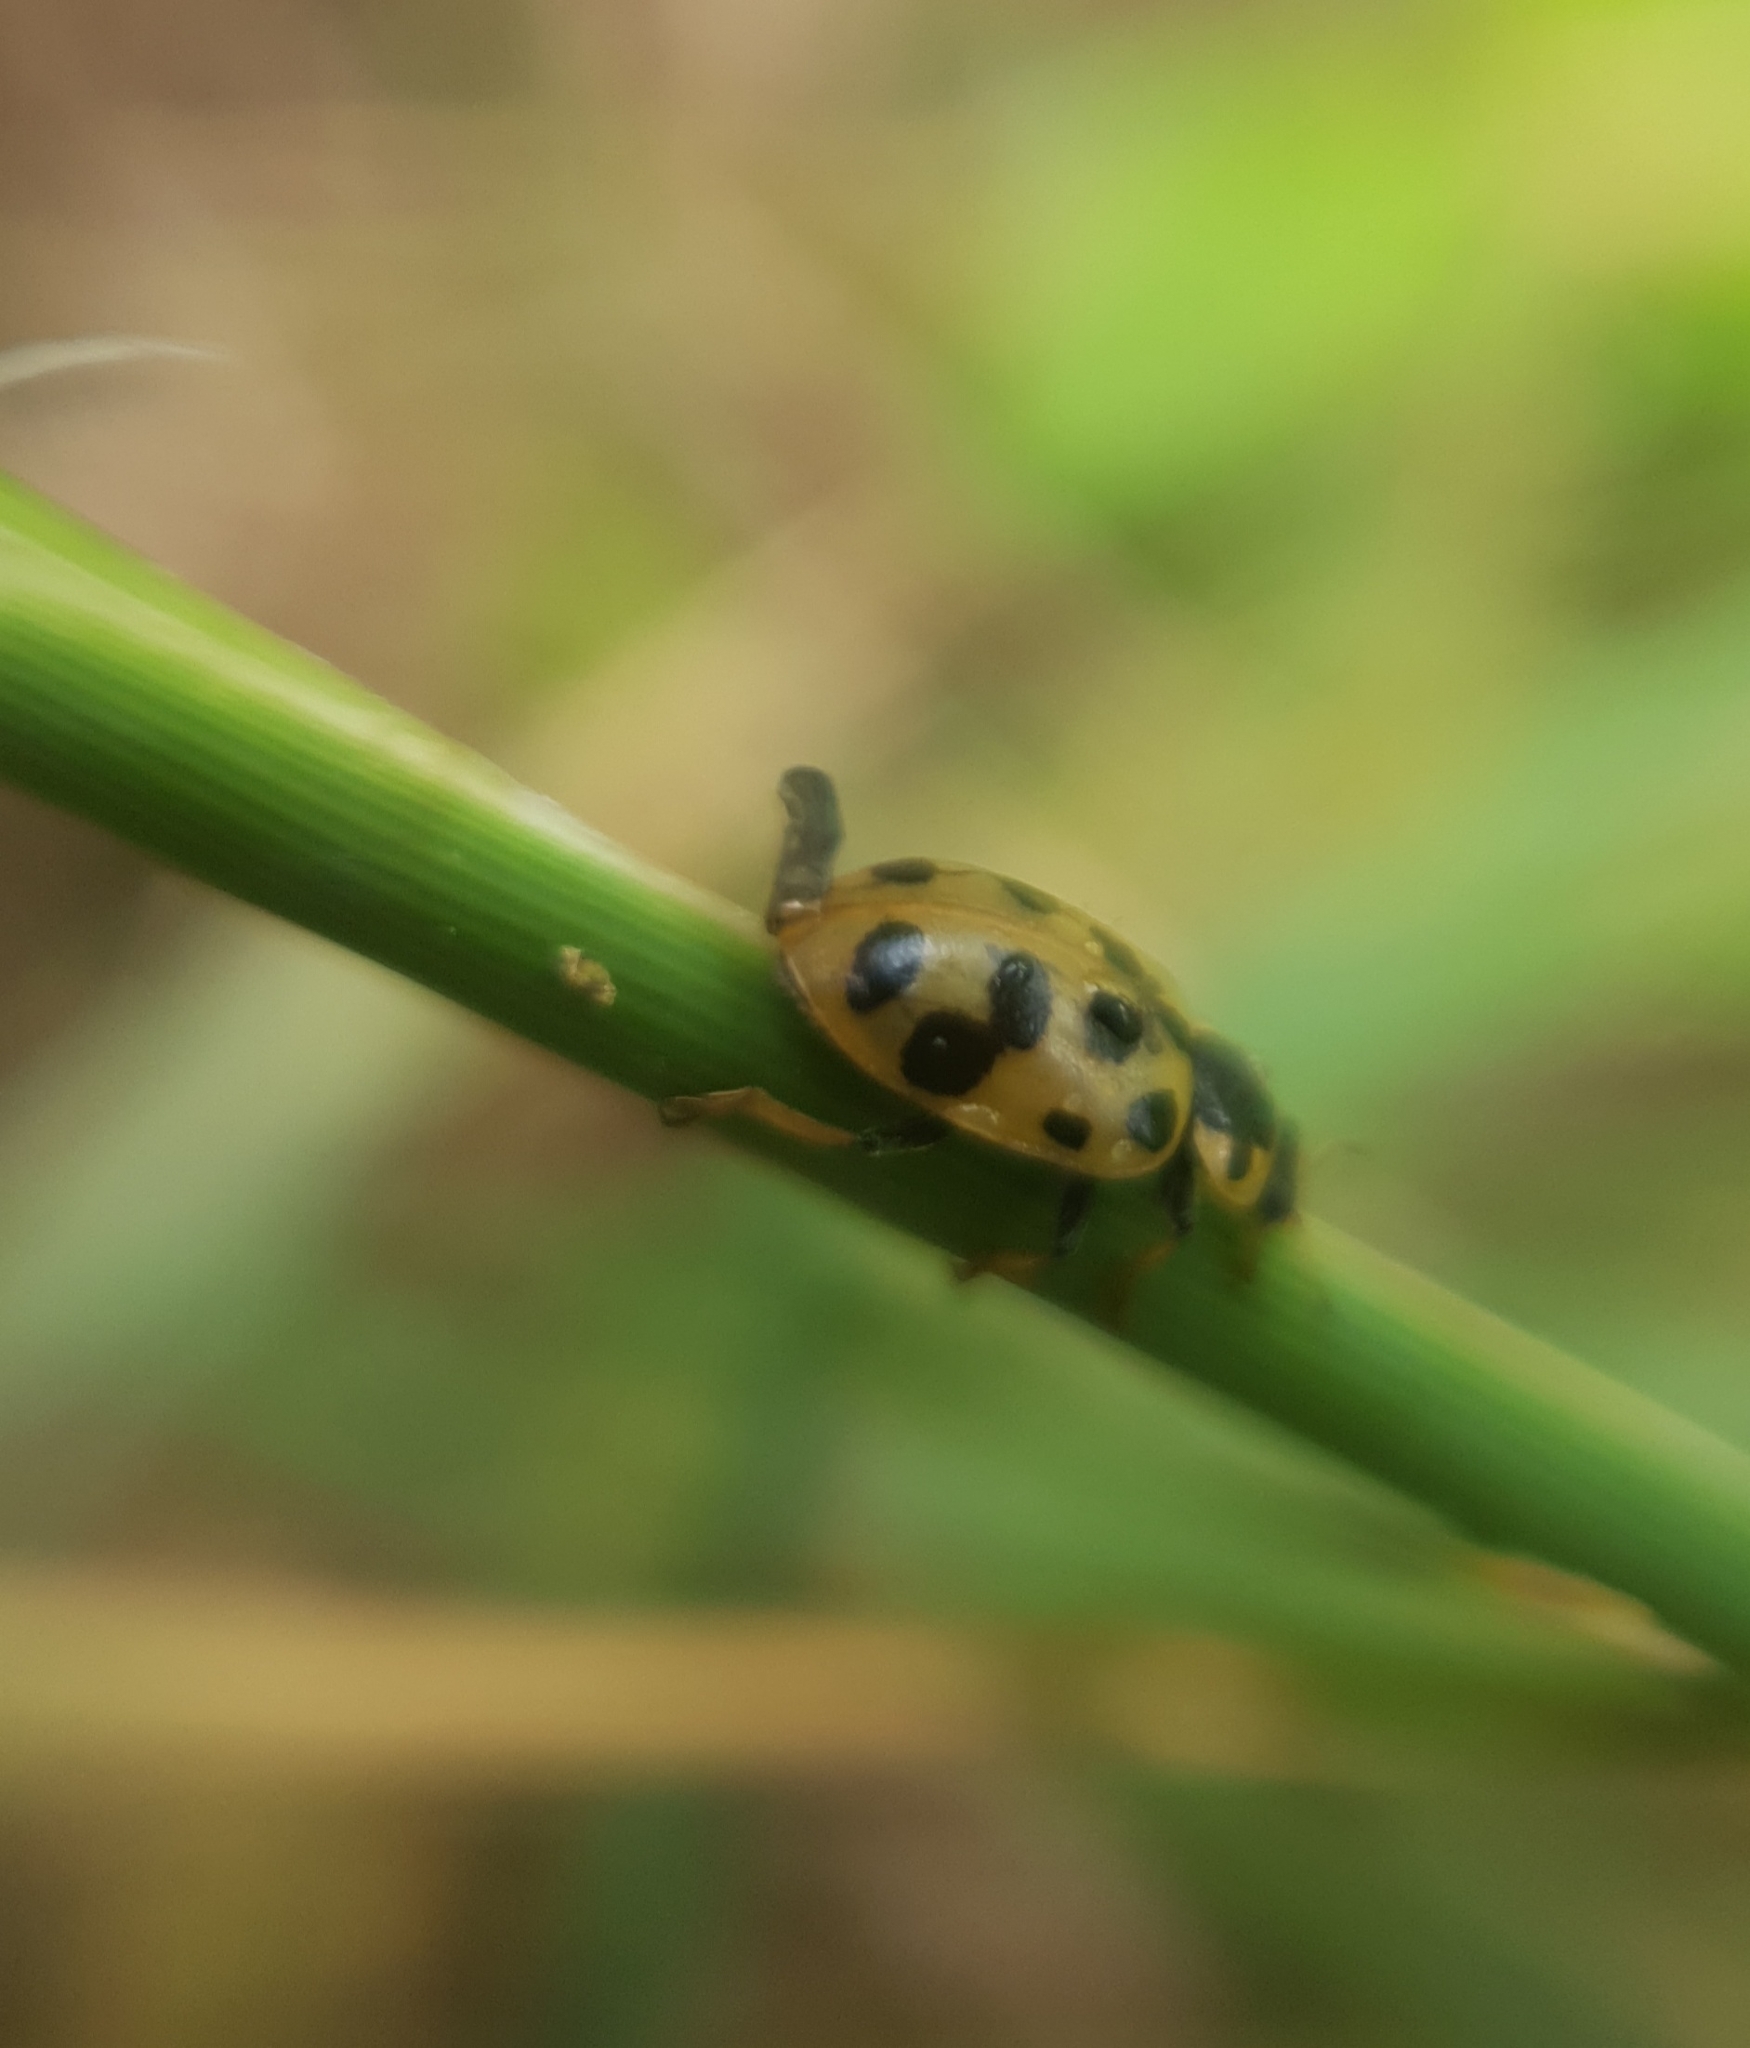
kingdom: Animalia
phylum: Arthropoda
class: Insecta
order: Coleoptera
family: Coccinellidae
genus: Hippodamia
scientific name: Hippodamia tredecimpunctata
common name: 13-spot ladybird
